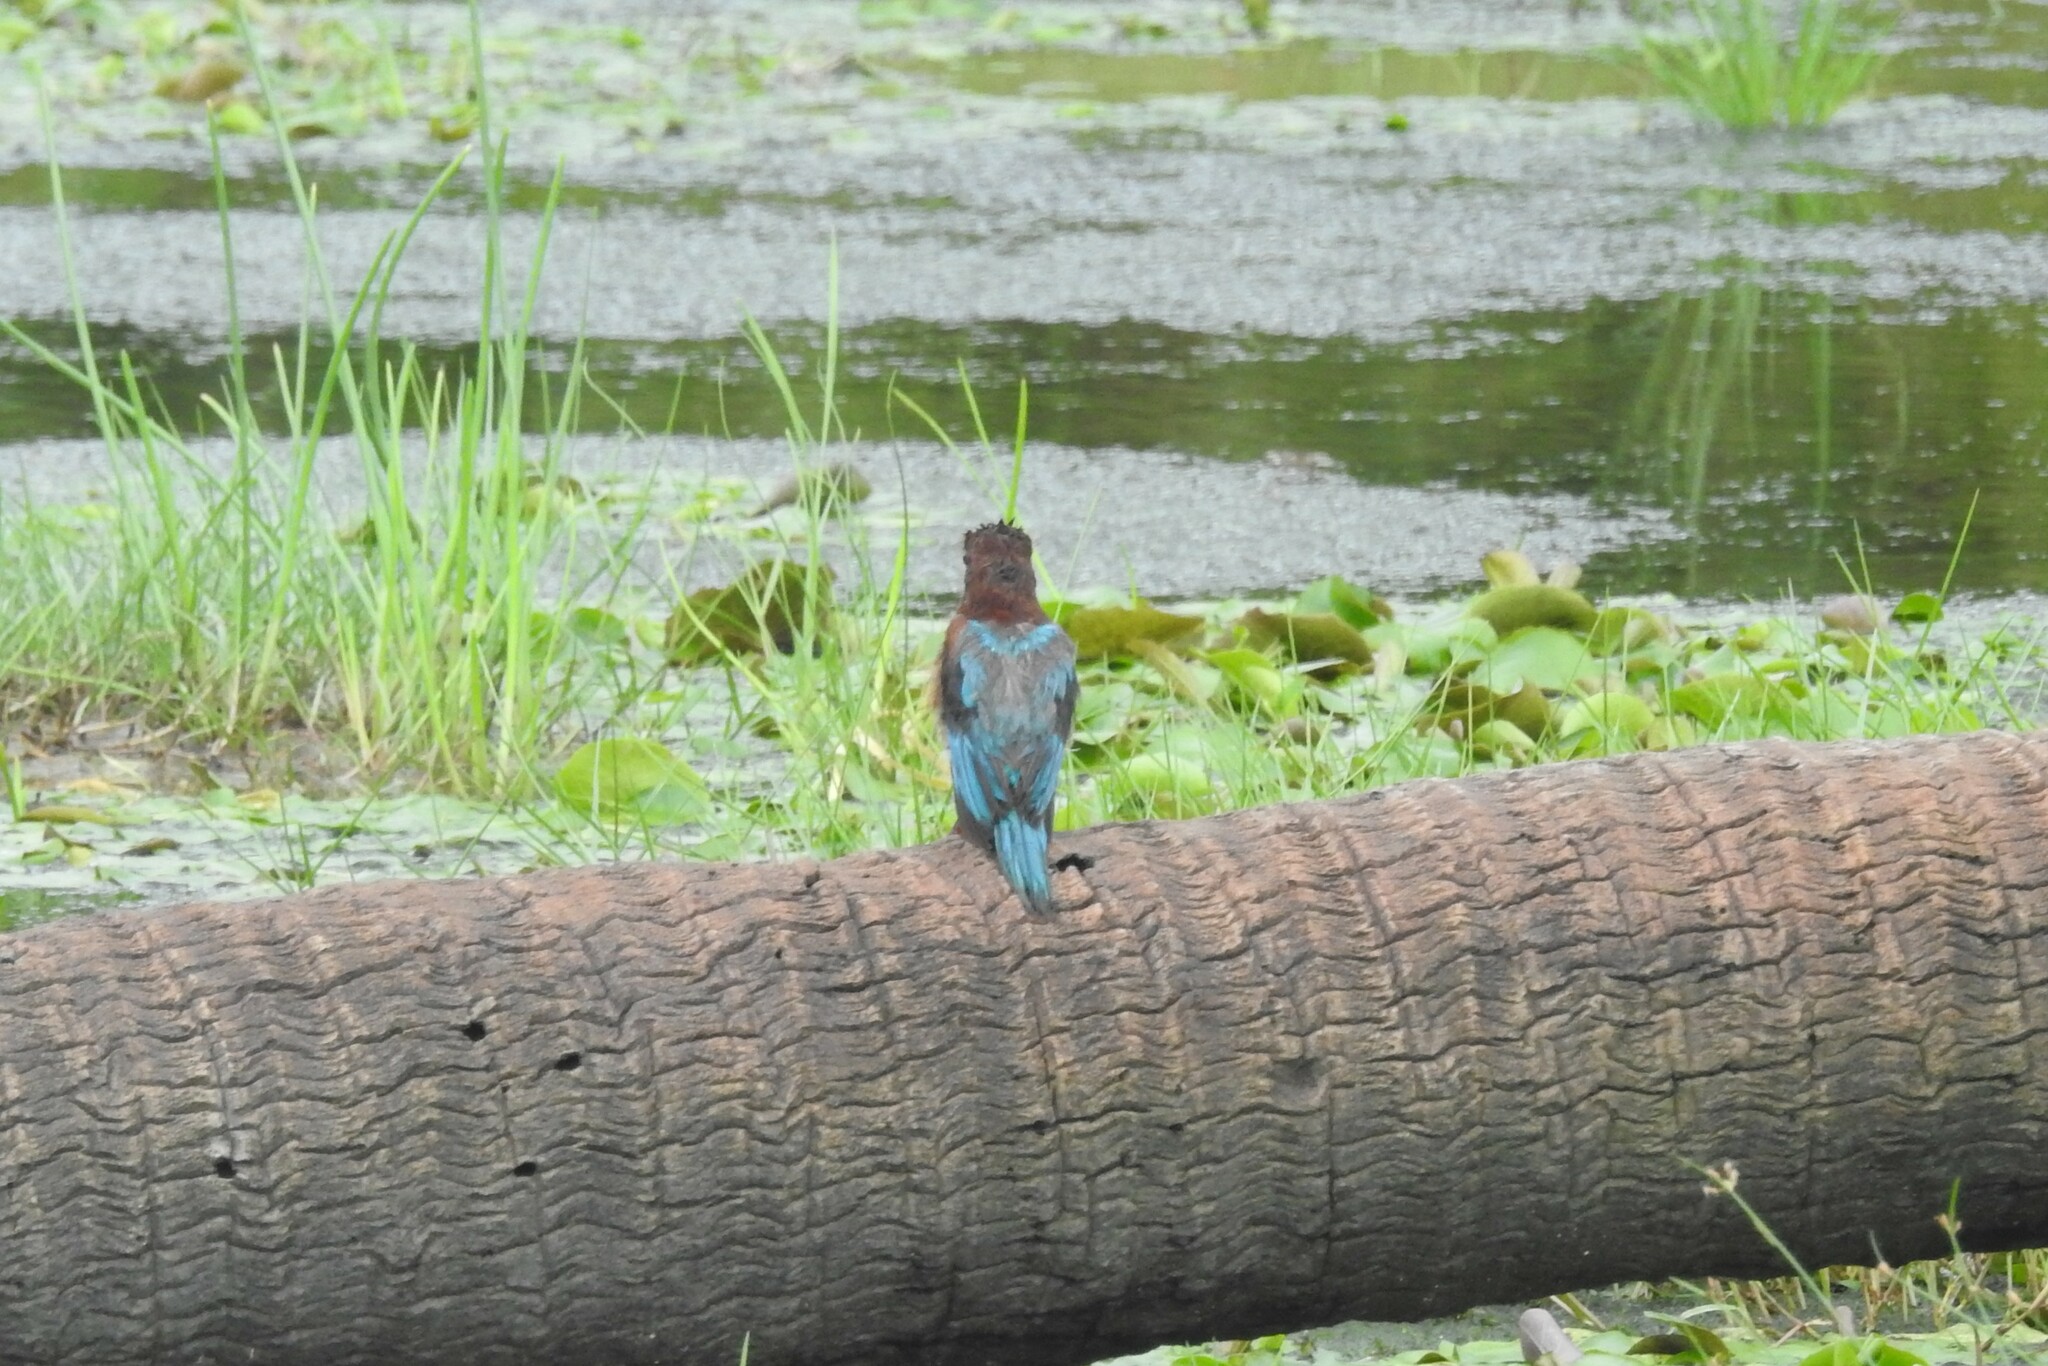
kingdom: Animalia
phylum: Chordata
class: Aves
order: Coraciiformes
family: Alcedinidae
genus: Halcyon
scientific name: Halcyon smyrnensis
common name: White-throated kingfisher
